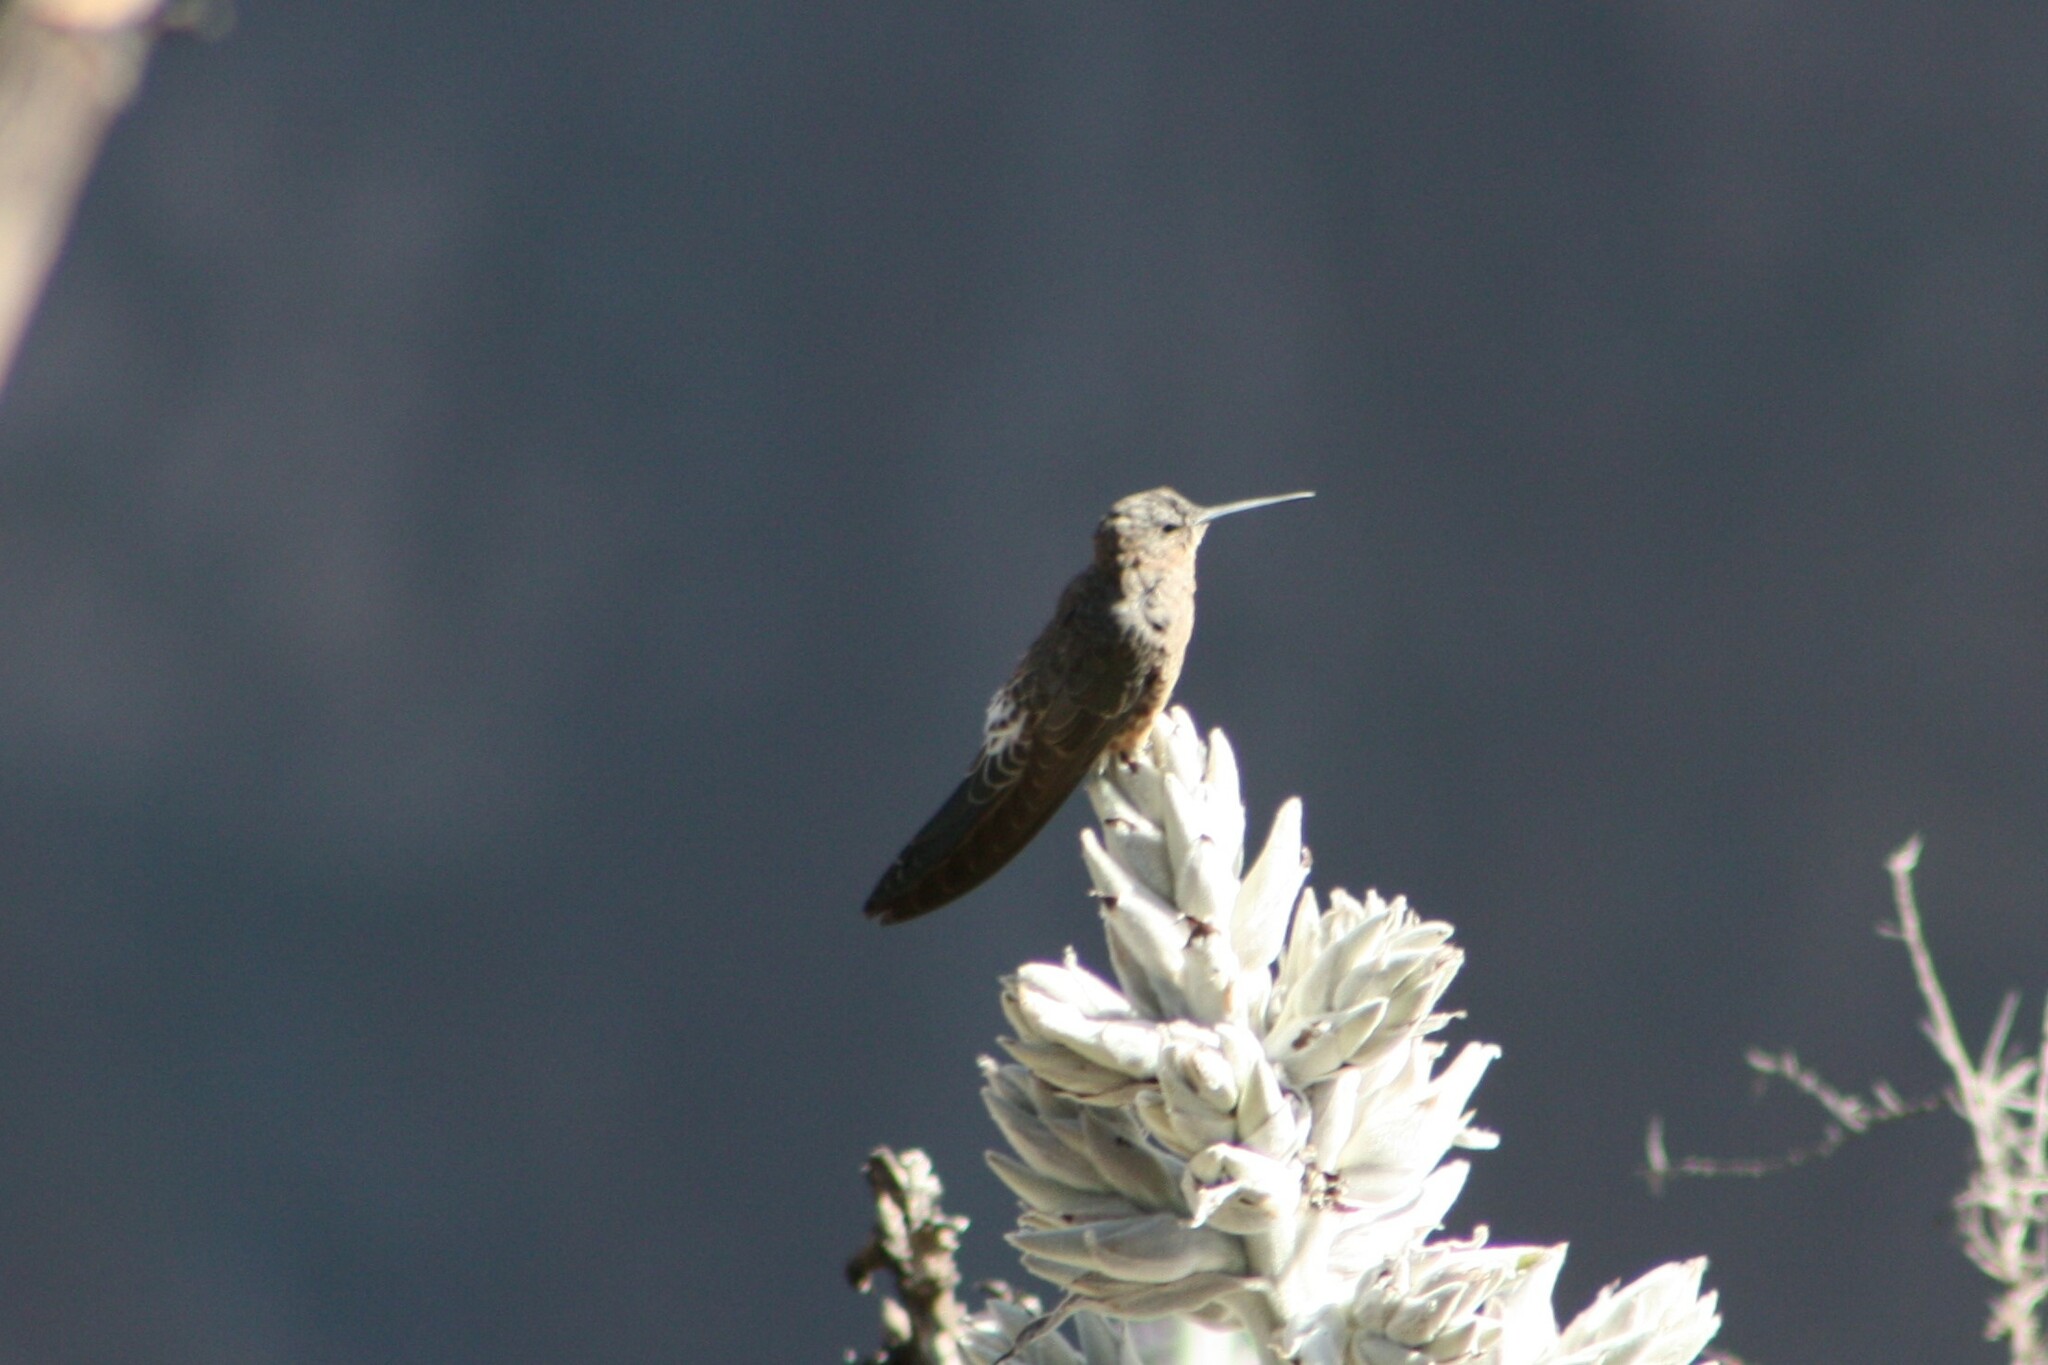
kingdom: Animalia
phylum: Chordata
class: Aves
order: Apodiformes
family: Trochilidae
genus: Patagona
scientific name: Patagona gigas
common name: Giant hummingbird
